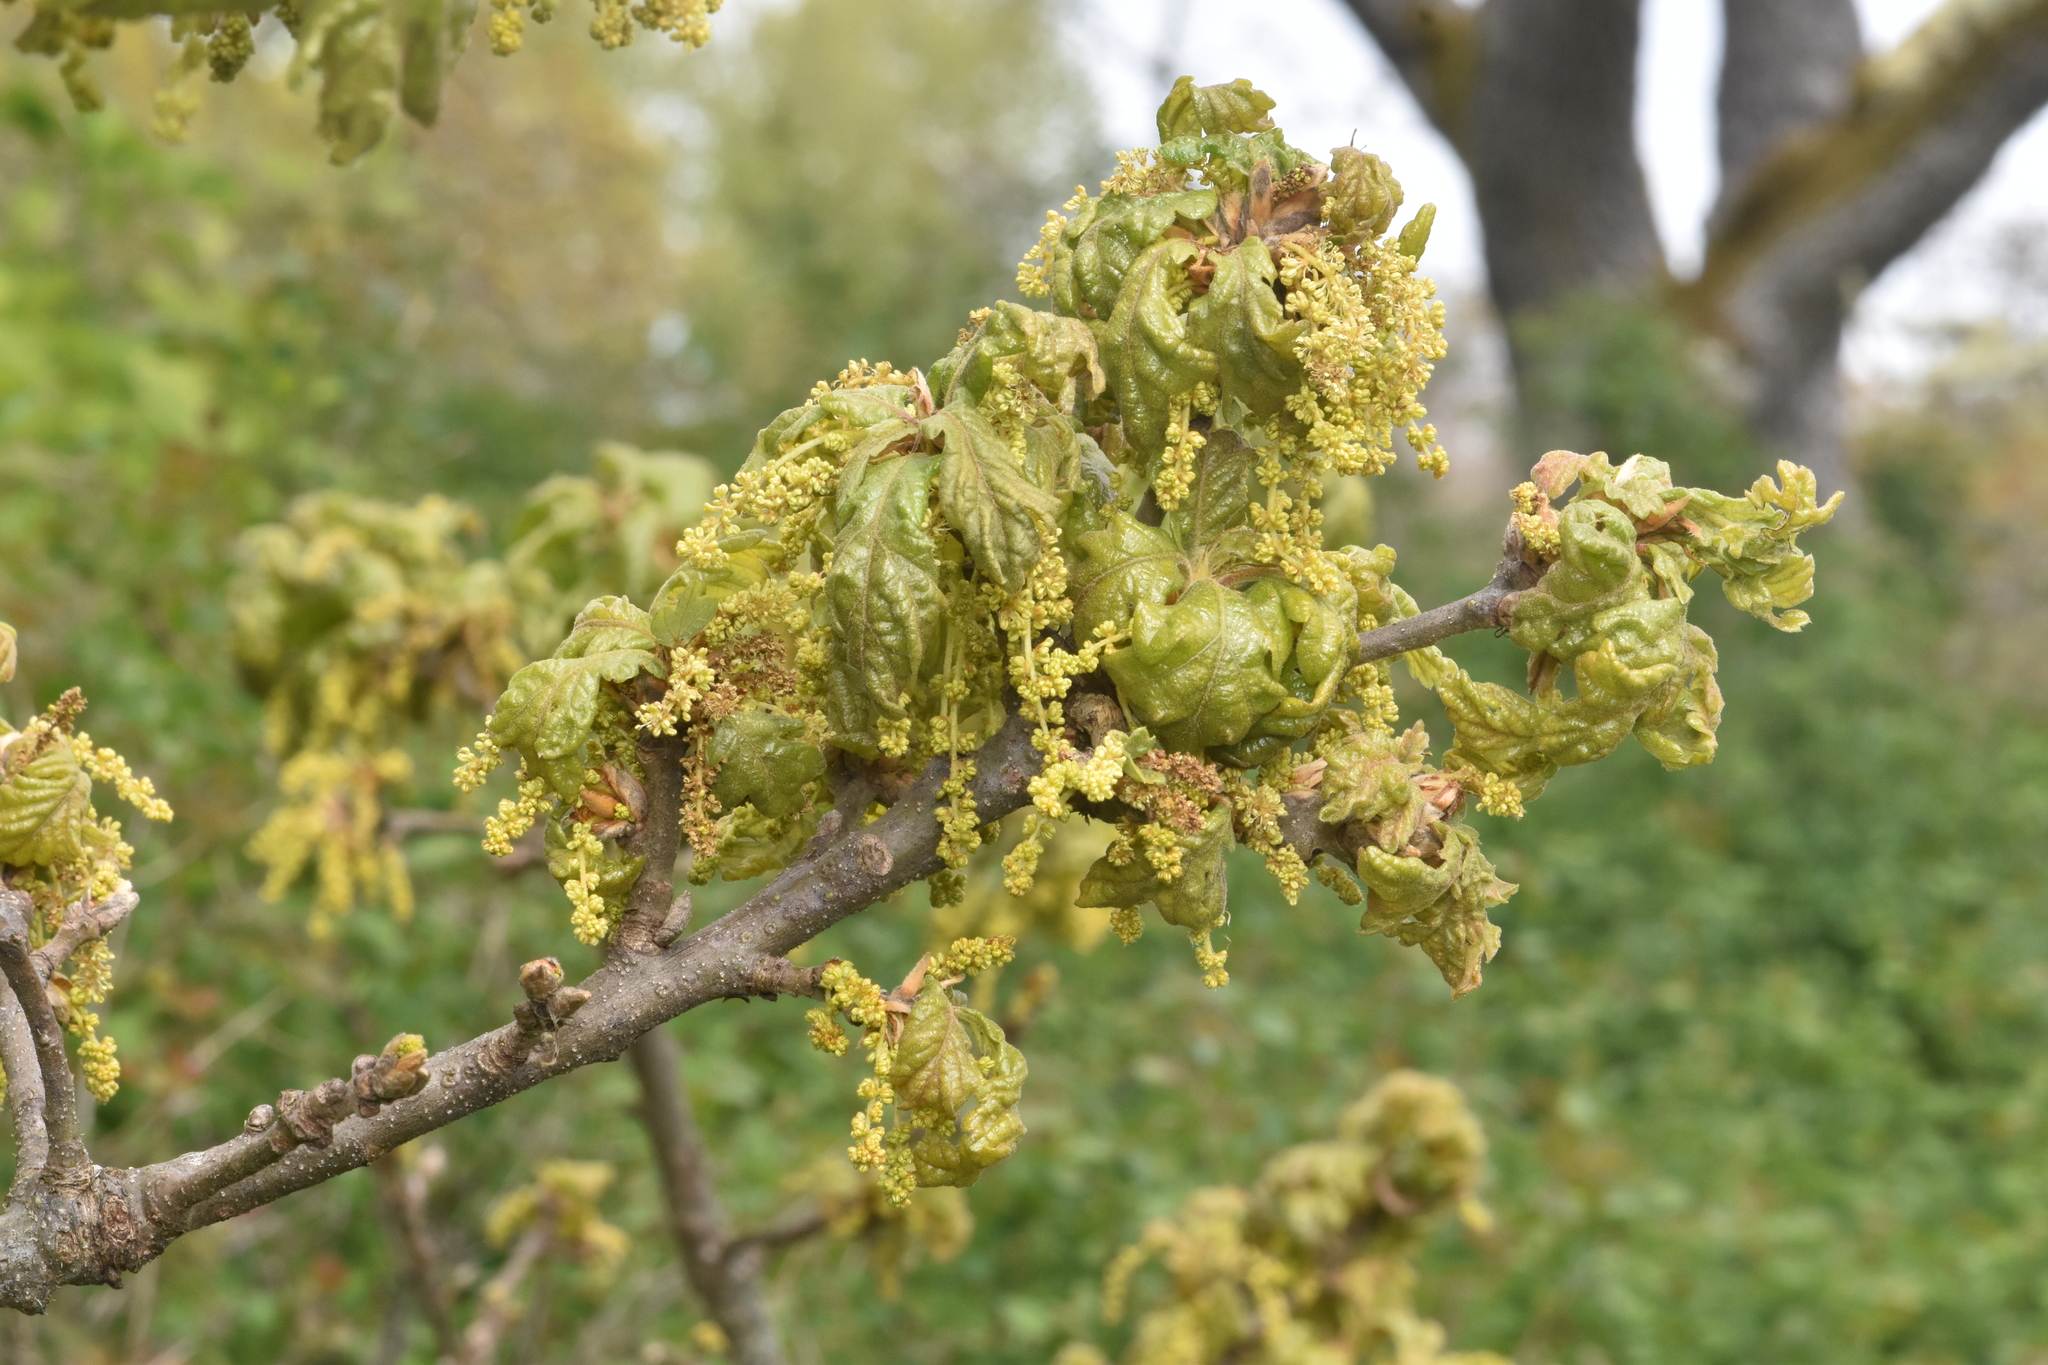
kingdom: Plantae
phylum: Tracheophyta
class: Magnoliopsida
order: Fagales
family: Fagaceae
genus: Quercus
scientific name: Quercus garryana
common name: Garry oak
